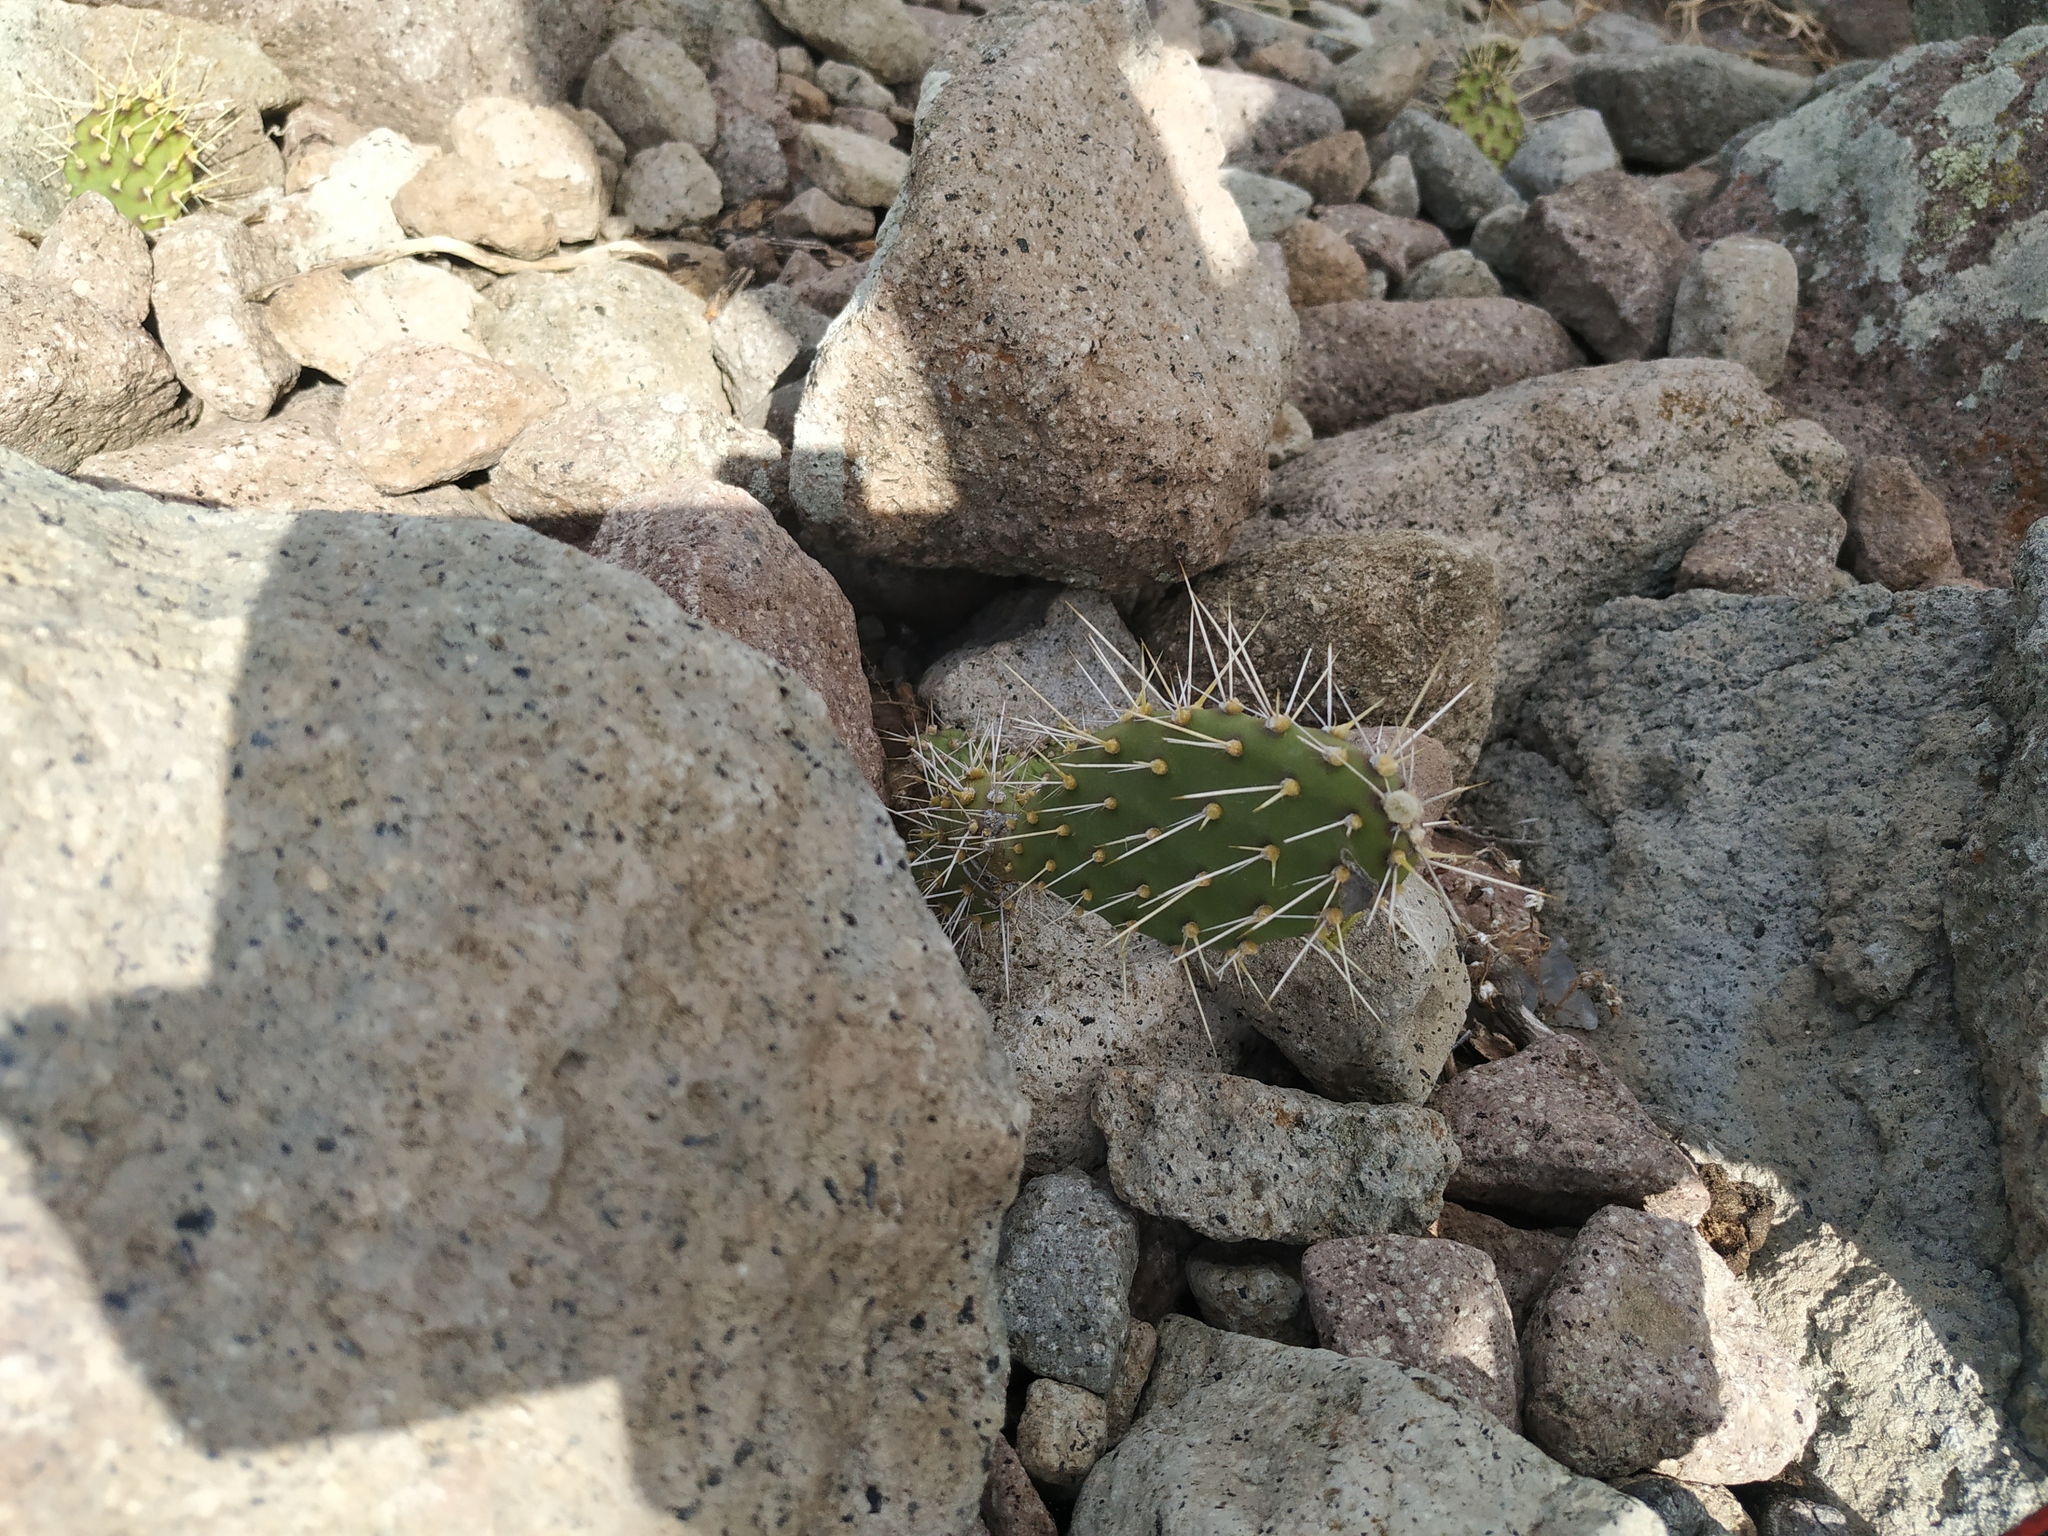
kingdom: Plantae
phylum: Tracheophyta
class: Magnoliopsida
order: Caryophyllales
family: Cactaceae
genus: Opuntia
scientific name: Opuntia triacanthos
